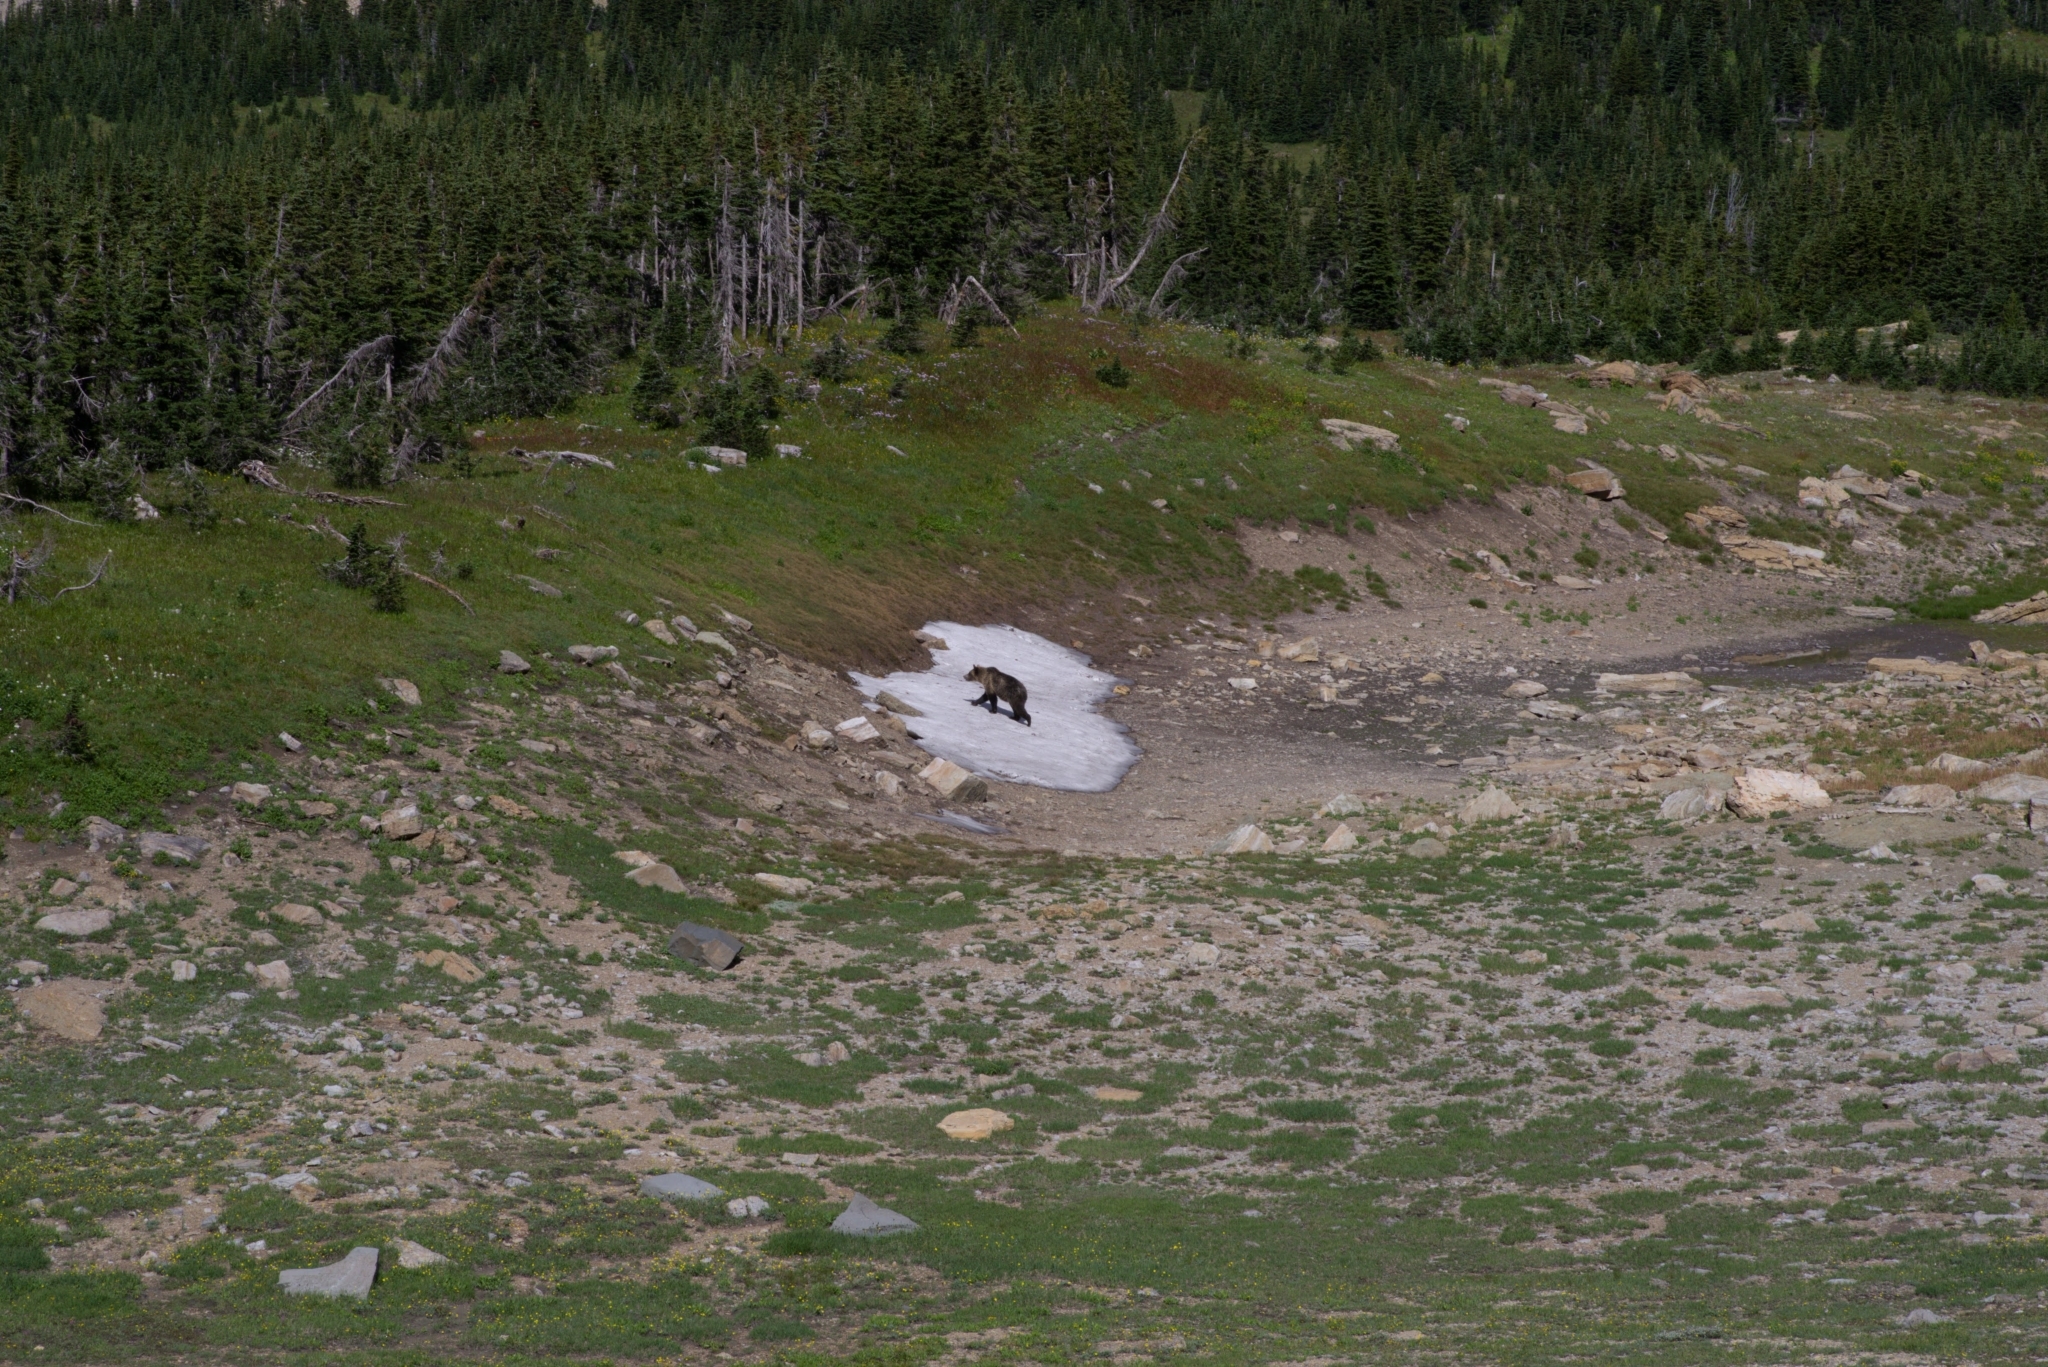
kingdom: Animalia
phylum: Chordata
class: Mammalia
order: Carnivora
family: Ursidae
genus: Ursus
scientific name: Ursus arctos
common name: Brown bear
